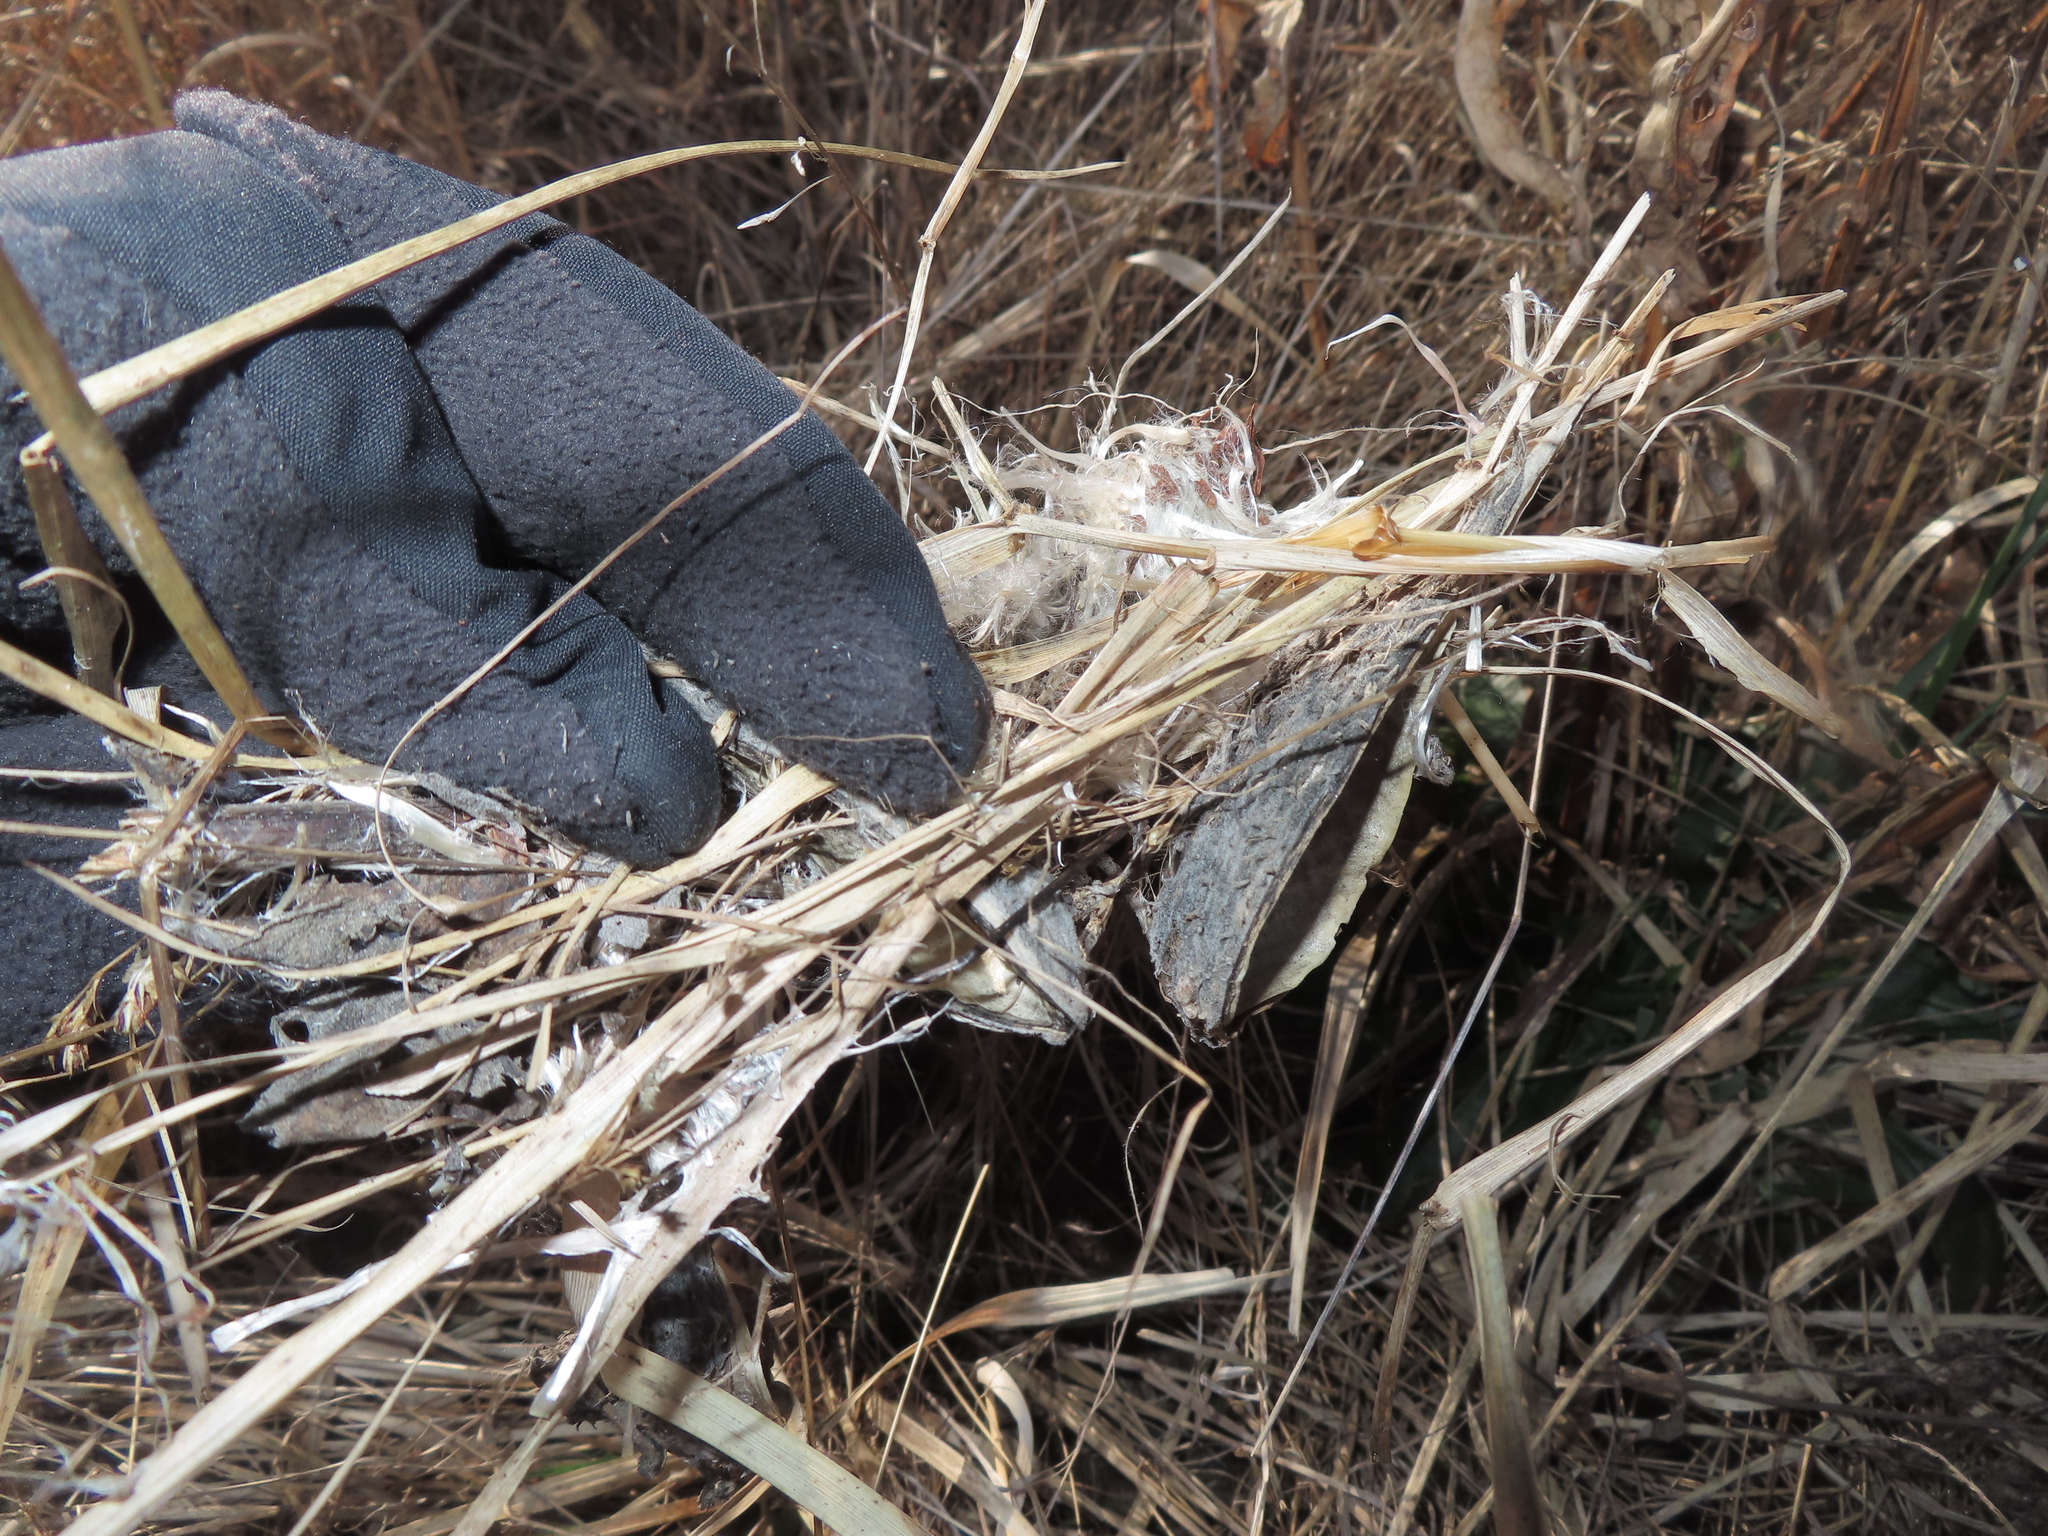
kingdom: Plantae
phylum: Tracheophyta
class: Magnoliopsida
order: Gentianales
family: Apocynaceae
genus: Asclepias
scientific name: Asclepias syriaca
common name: Common milkweed
